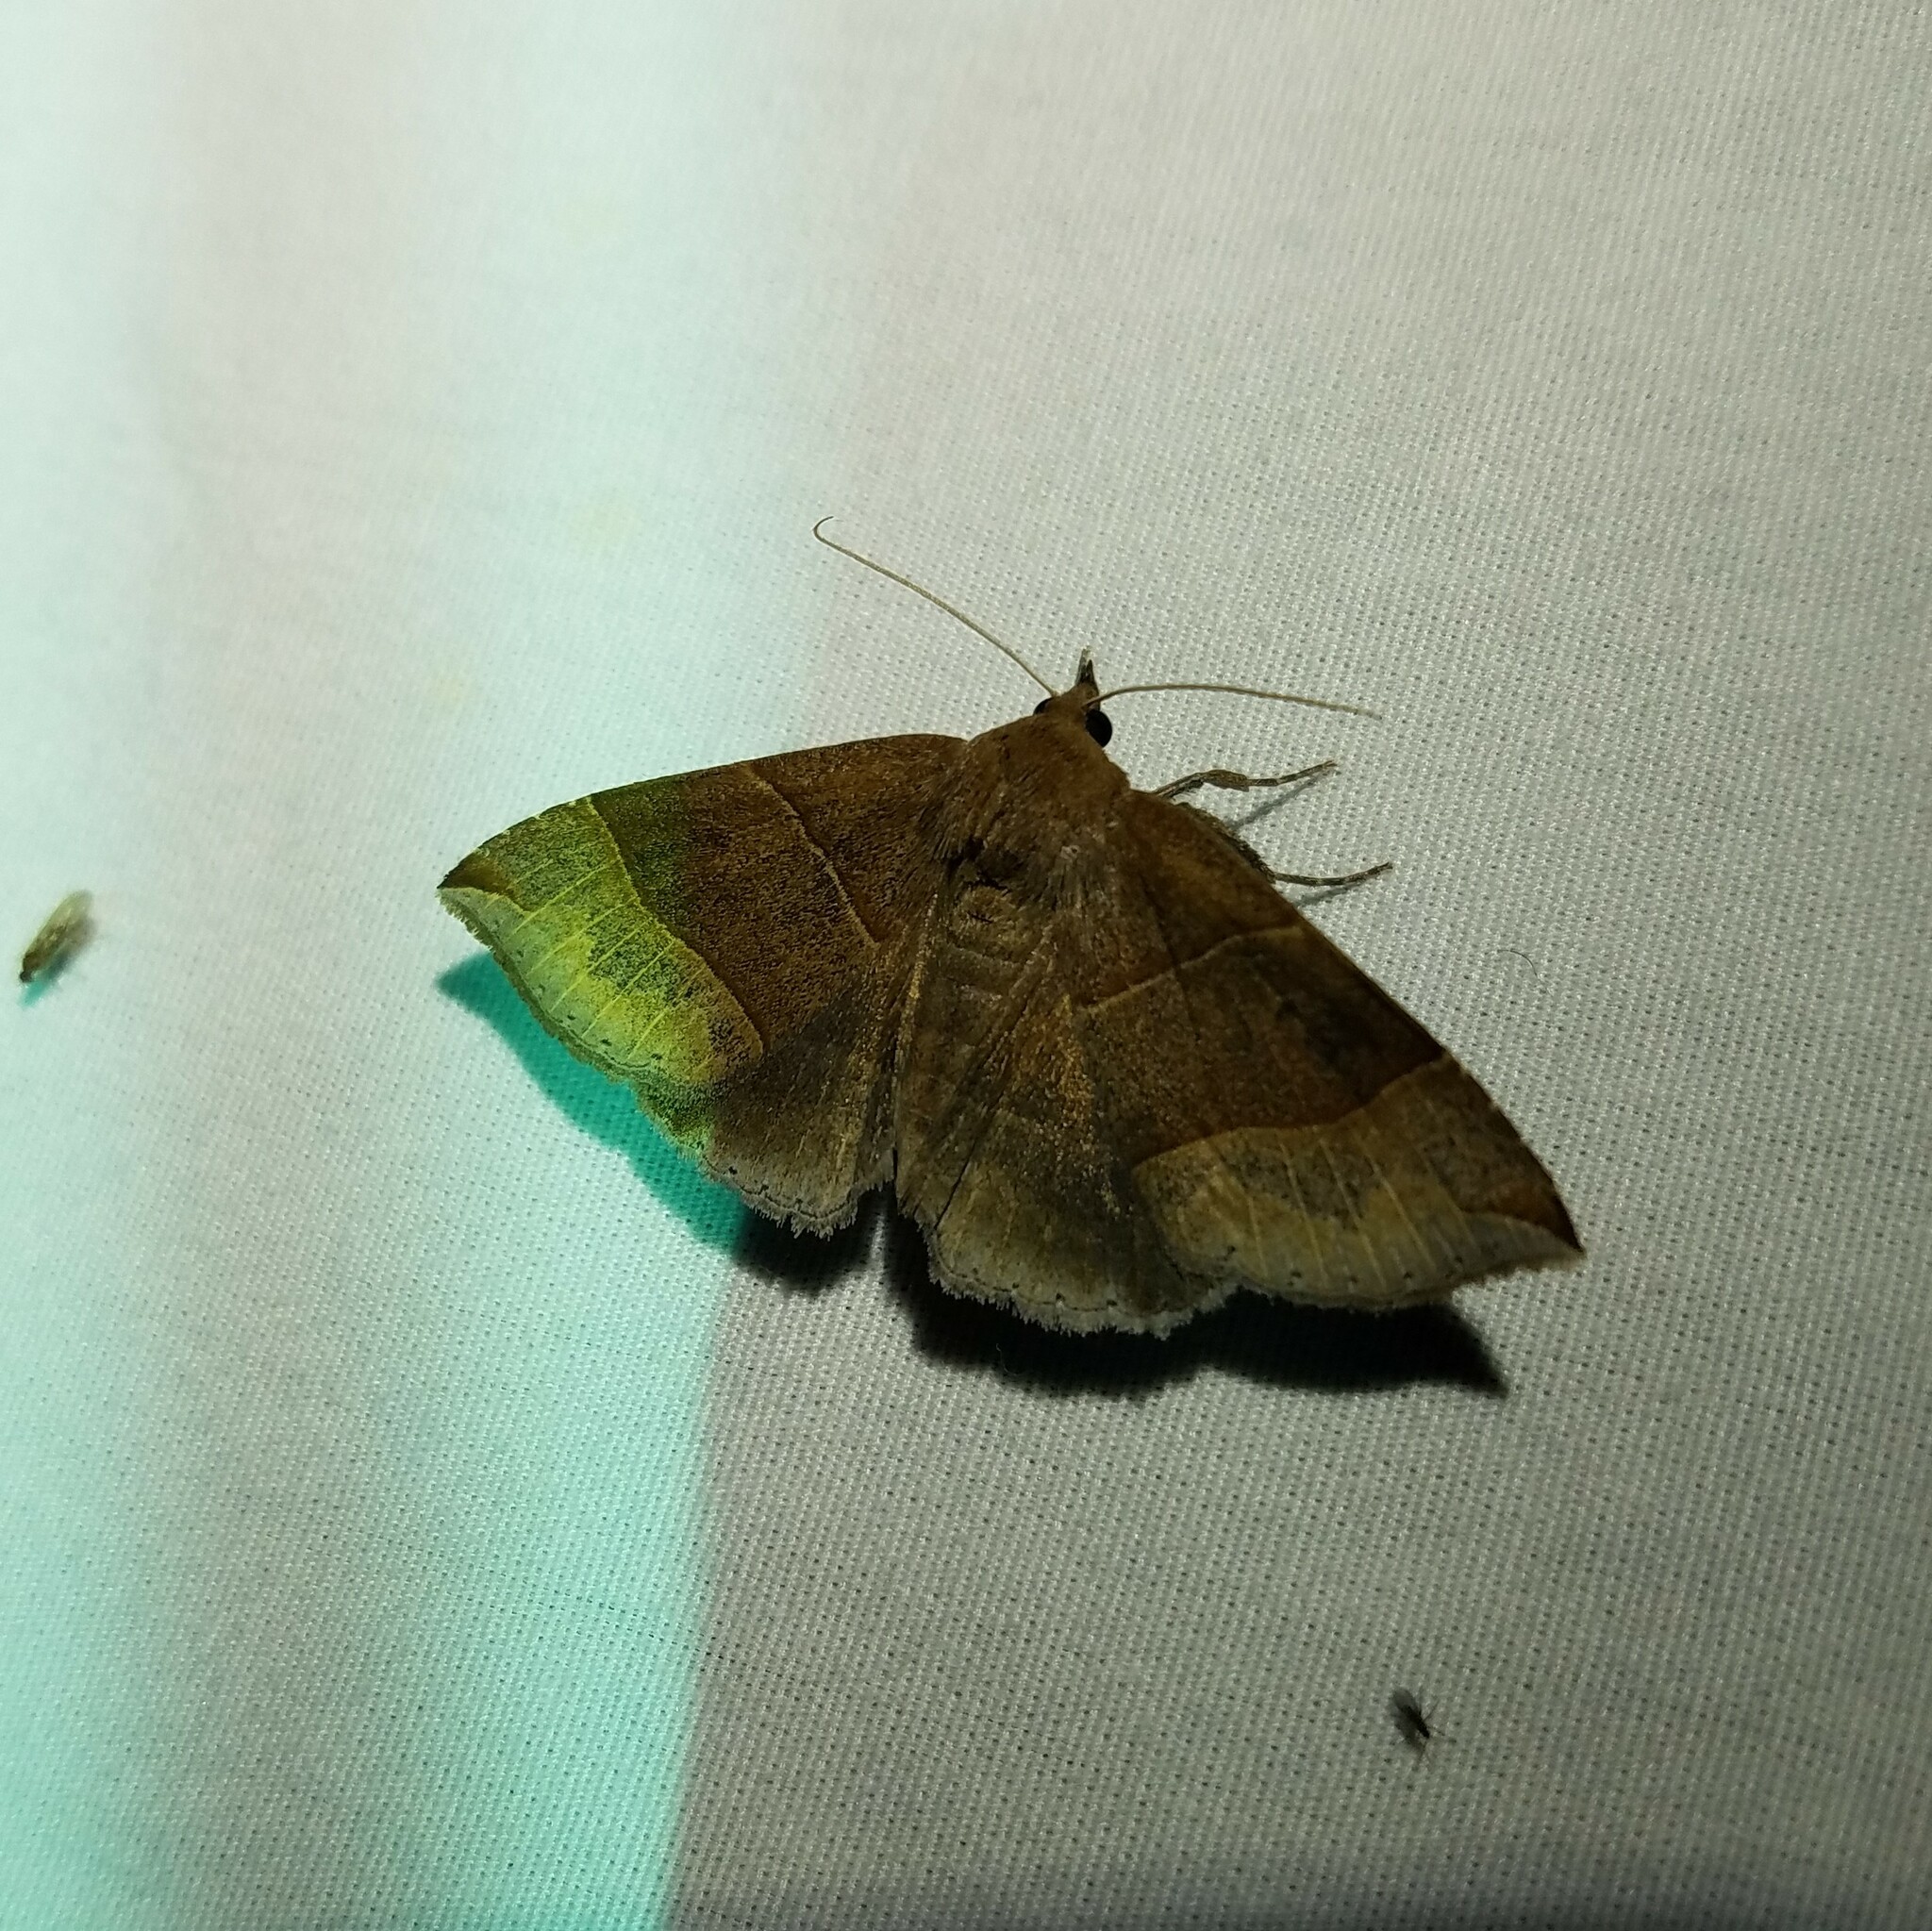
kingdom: Animalia
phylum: Arthropoda
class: Insecta
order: Lepidoptera
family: Erebidae
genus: Parallelia
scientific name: Parallelia bistriaris
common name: Maple looper moth
